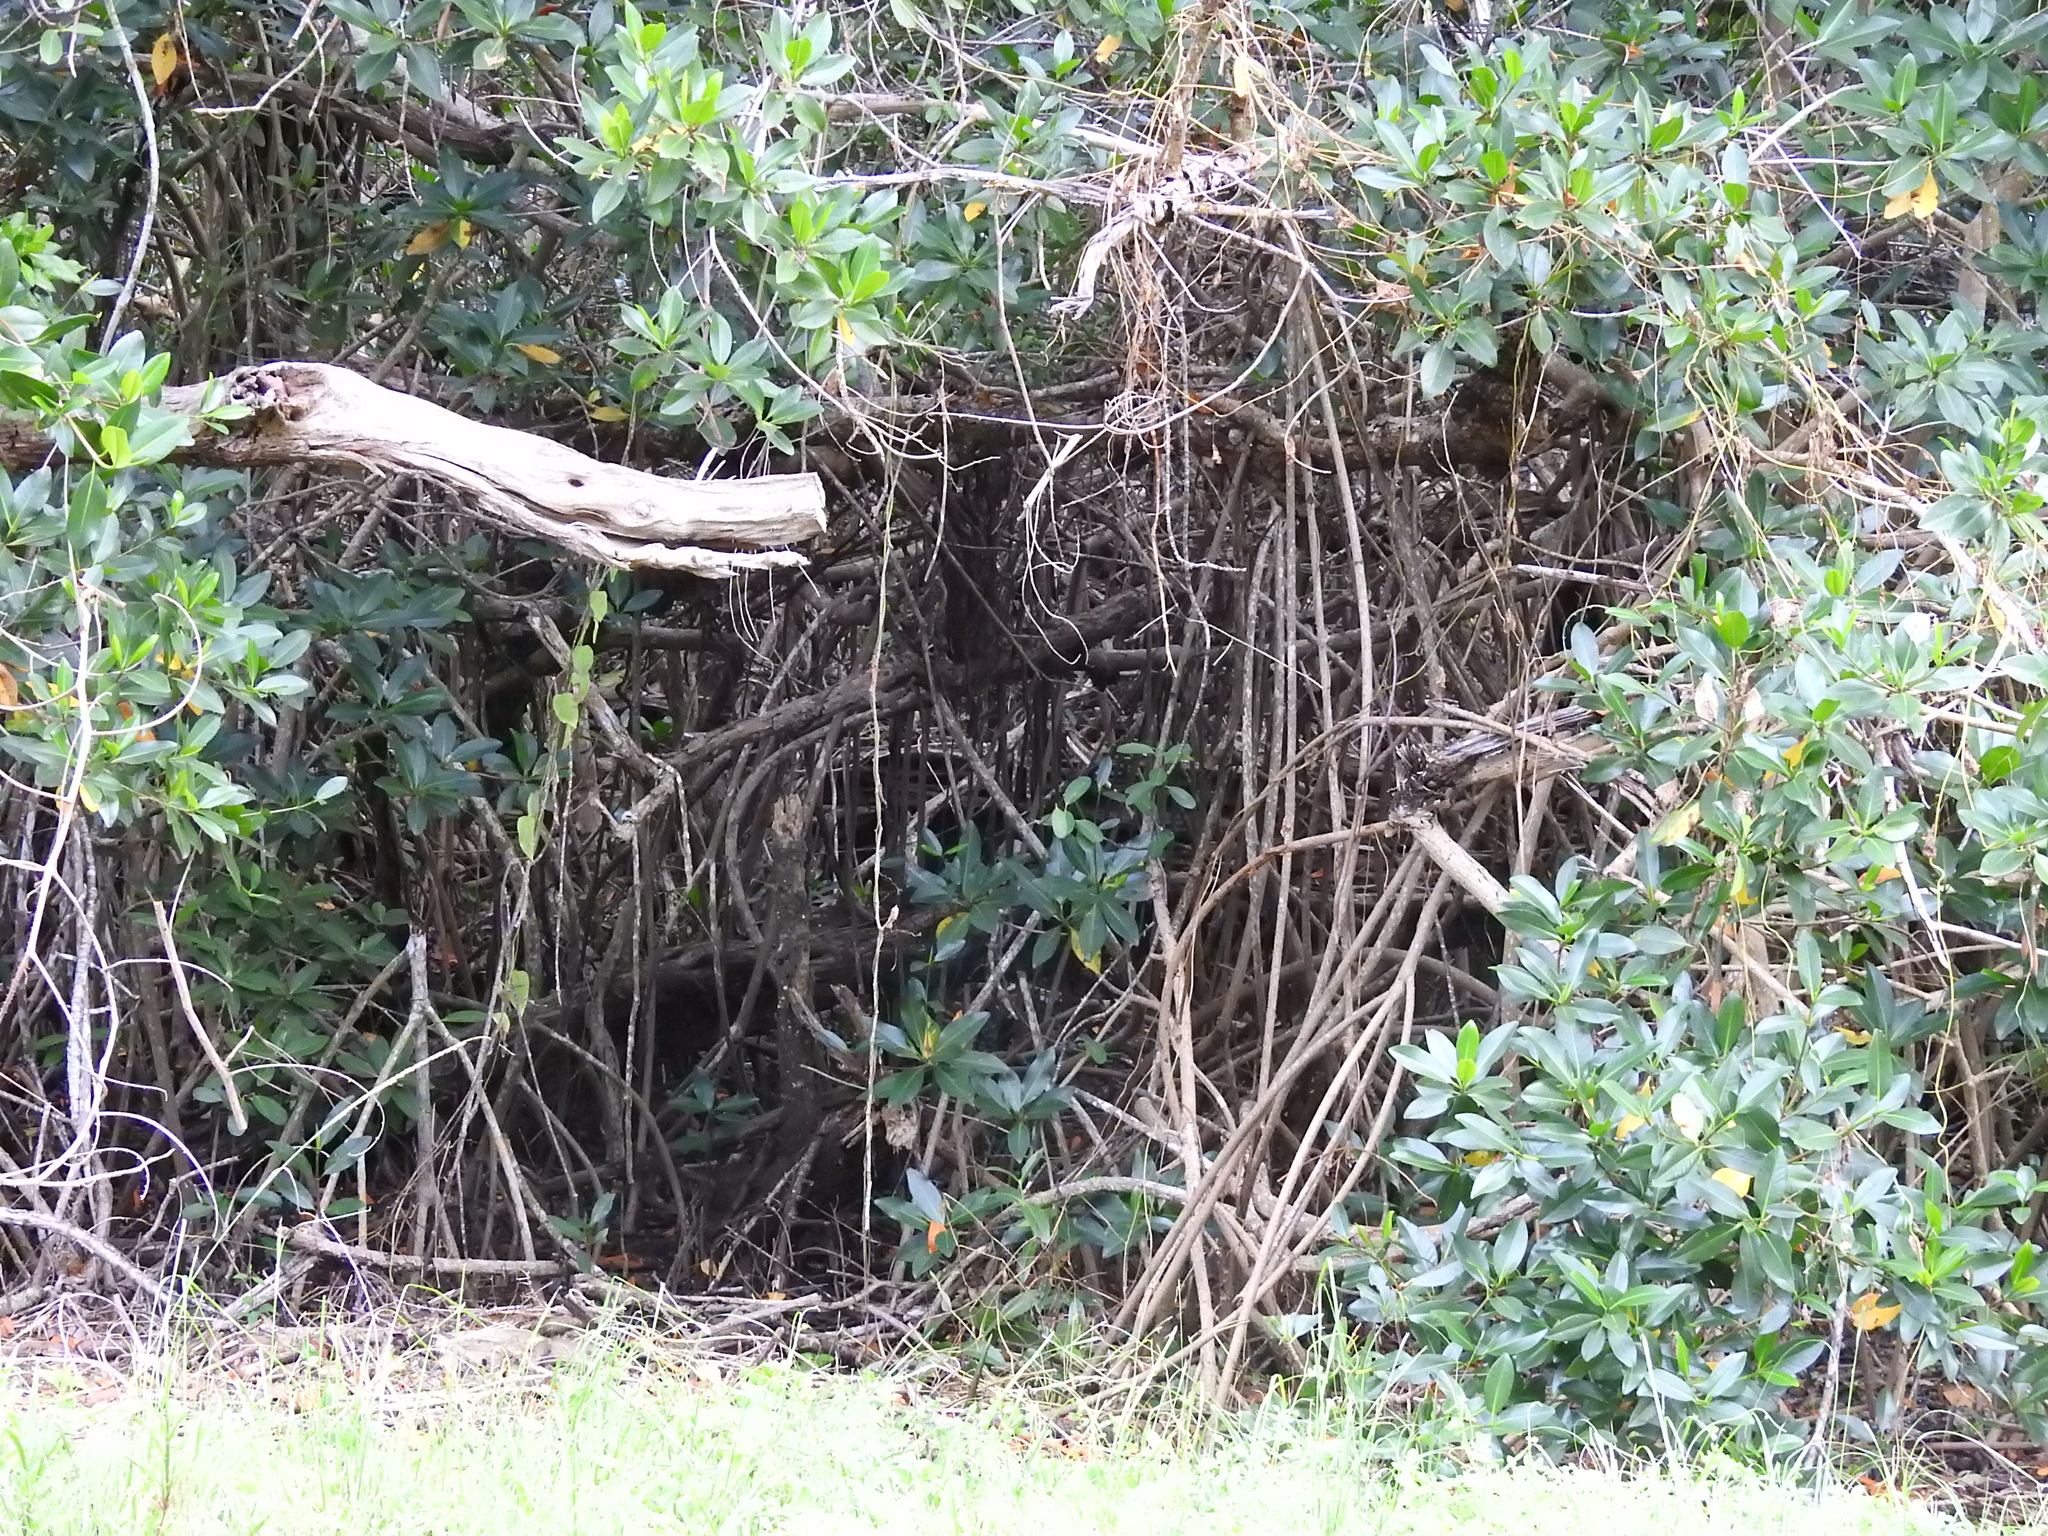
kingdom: Plantae
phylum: Tracheophyta
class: Magnoliopsida
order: Malpighiales
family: Rhizophoraceae
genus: Rhizophora
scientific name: Rhizophora mangle
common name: Red mangrove
